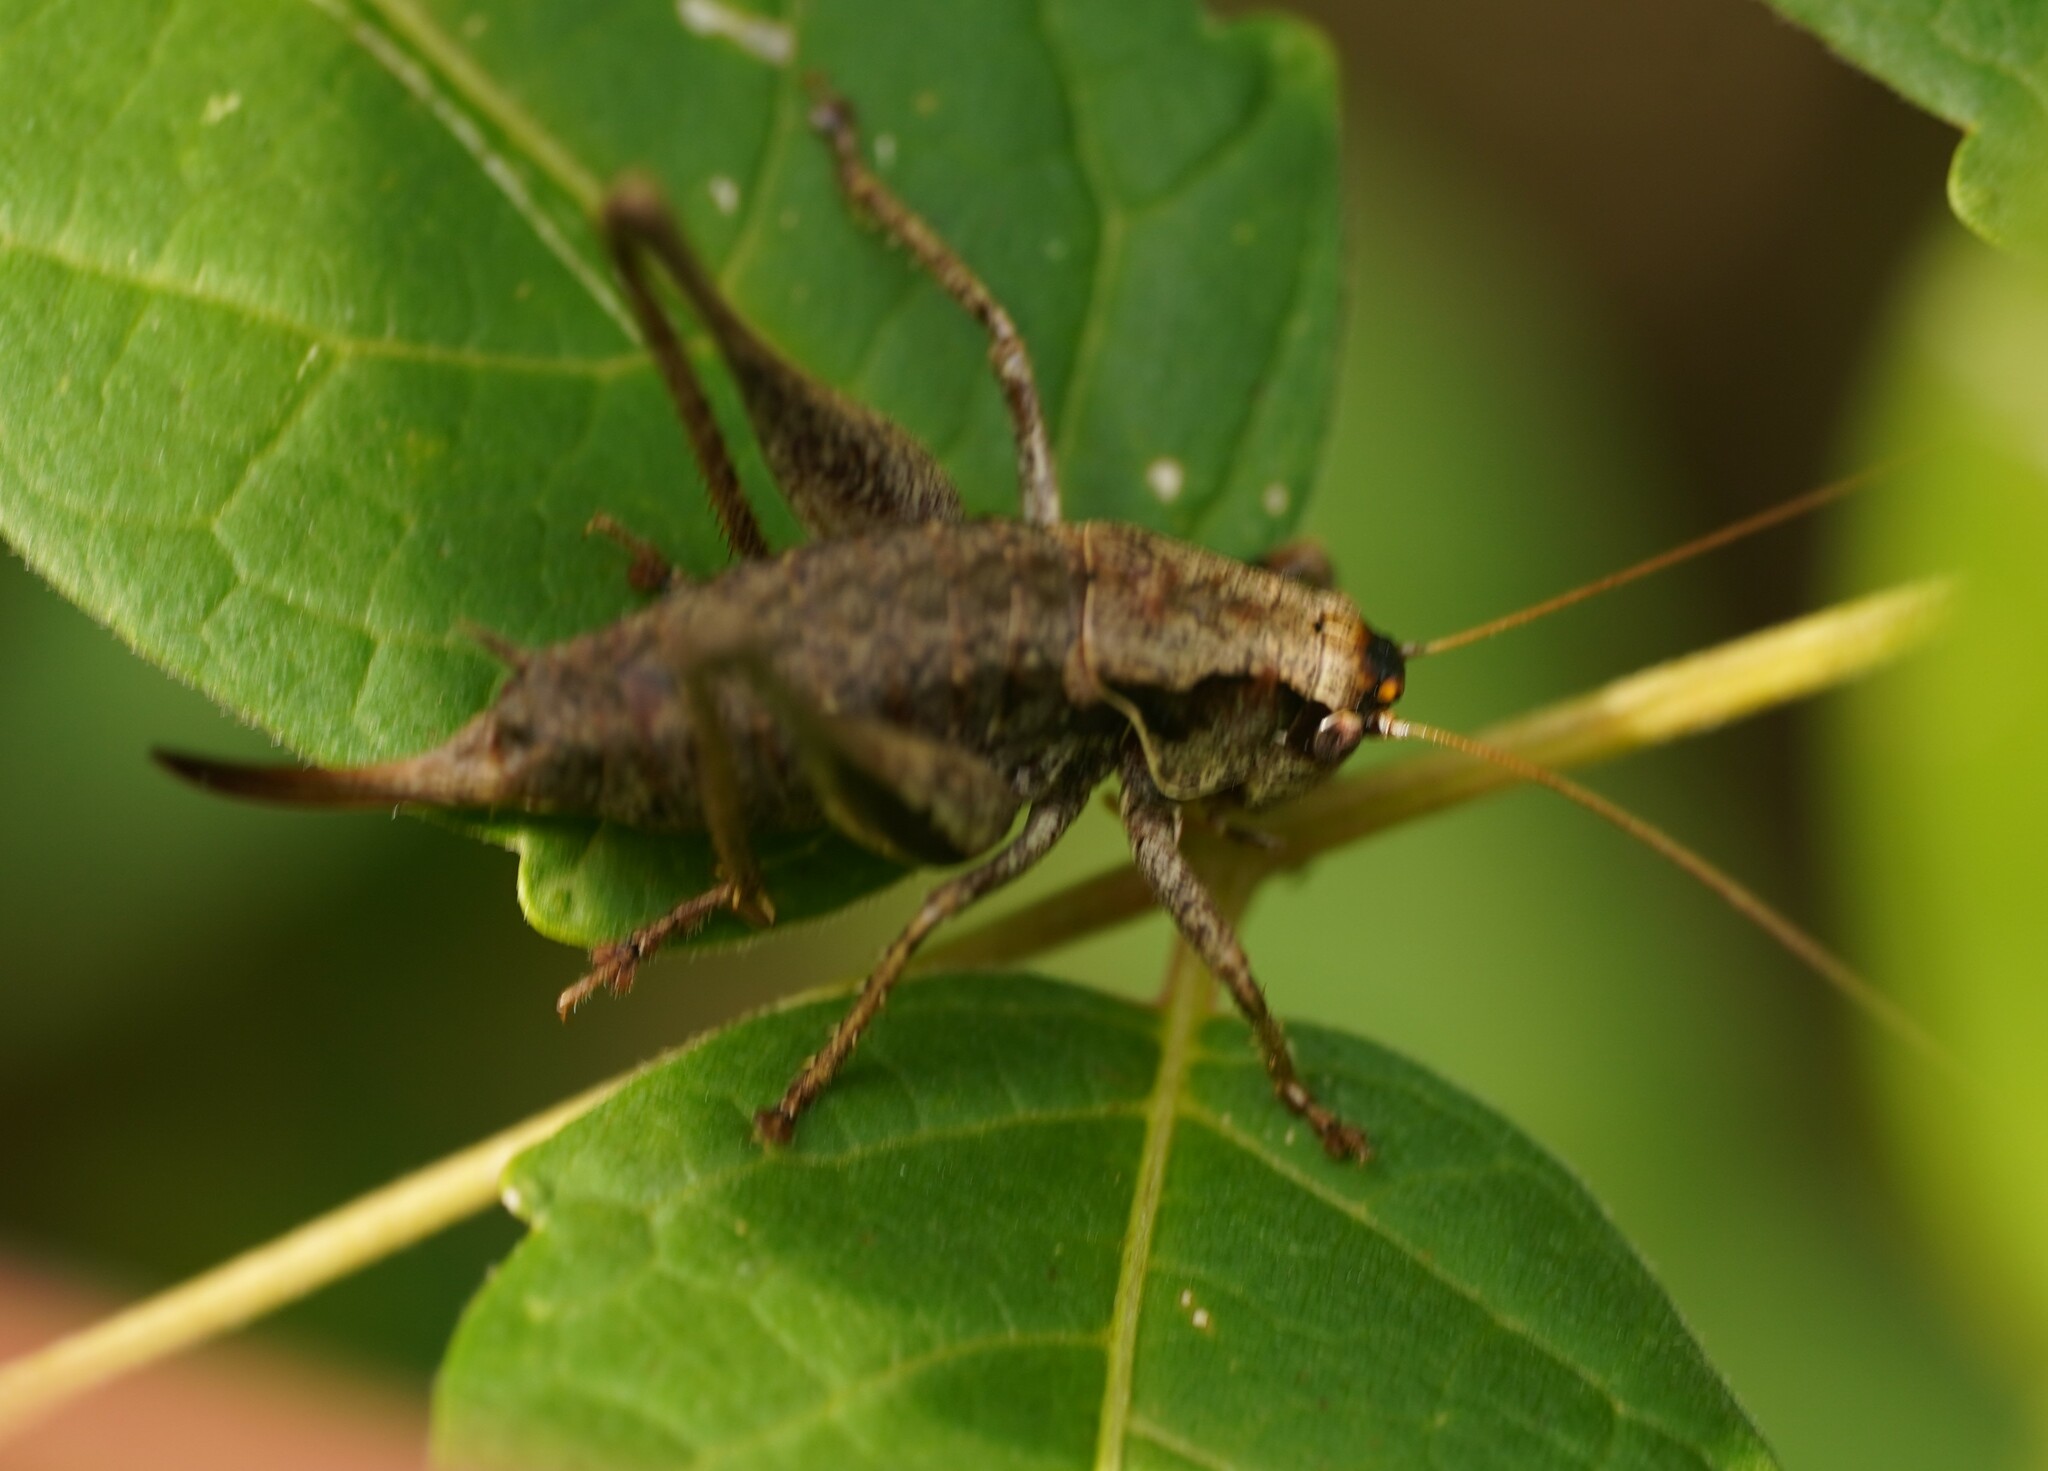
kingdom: Animalia
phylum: Arthropoda
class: Insecta
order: Orthoptera
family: Tettigoniidae
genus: Pholidoptera
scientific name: Pholidoptera griseoaptera
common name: Dark bush-cricket
